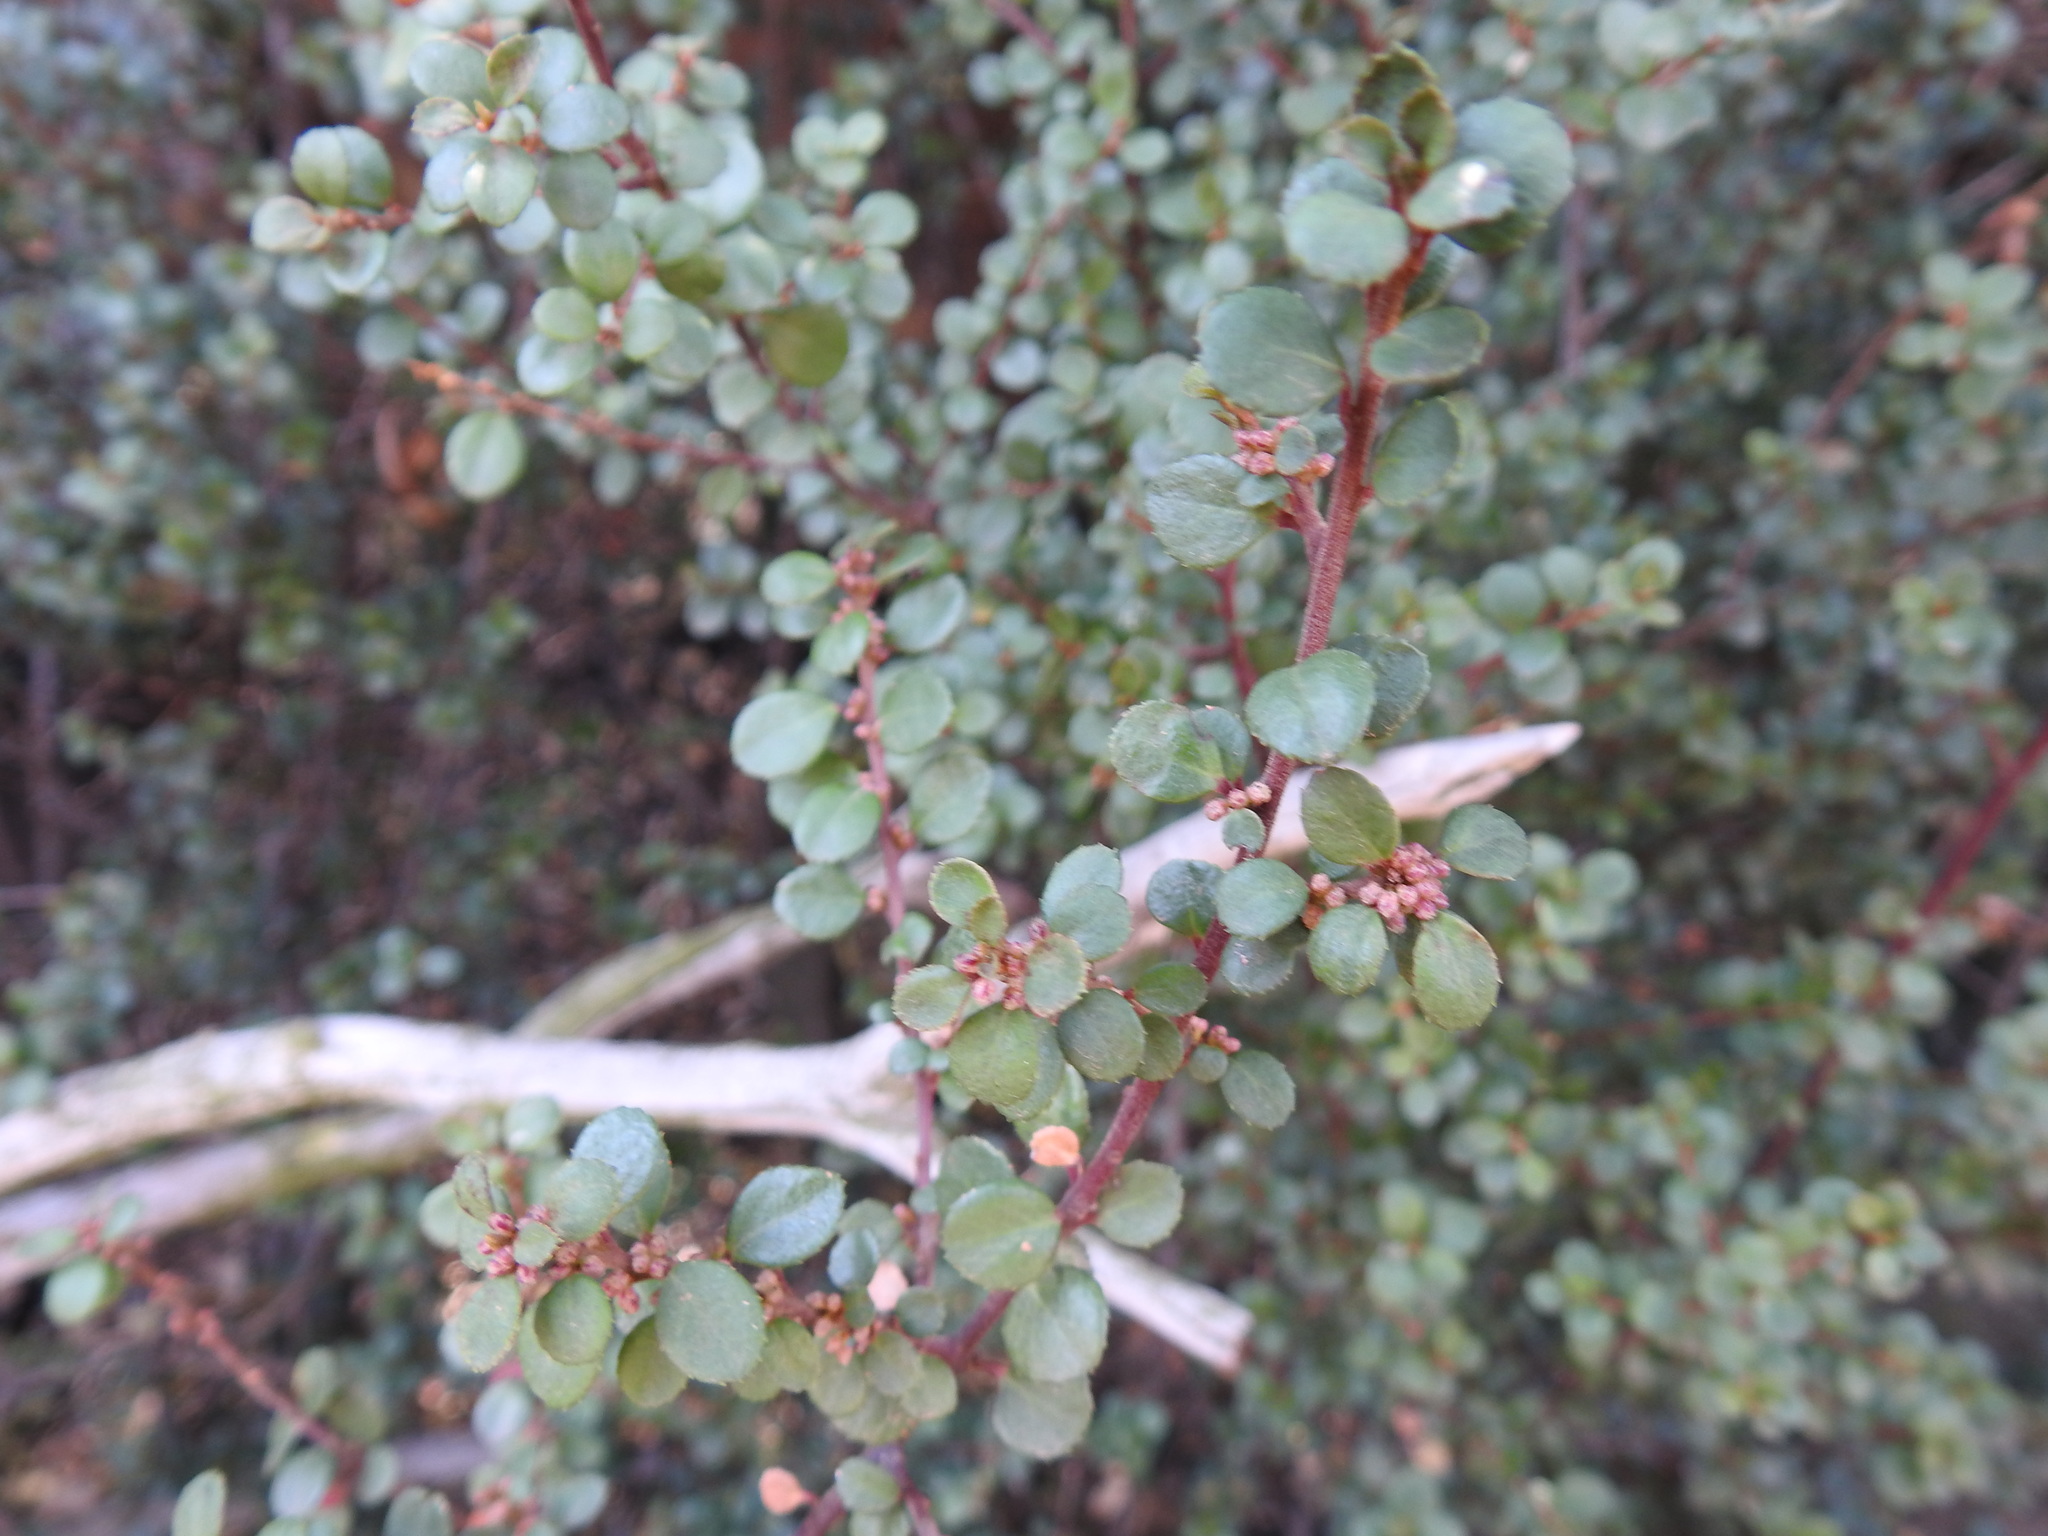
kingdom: Plantae
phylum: Tracheophyta
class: Magnoliopsida
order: Ericales
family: Primulaceae
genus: Myrsine
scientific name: Myrsine africana
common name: African-boxwood
